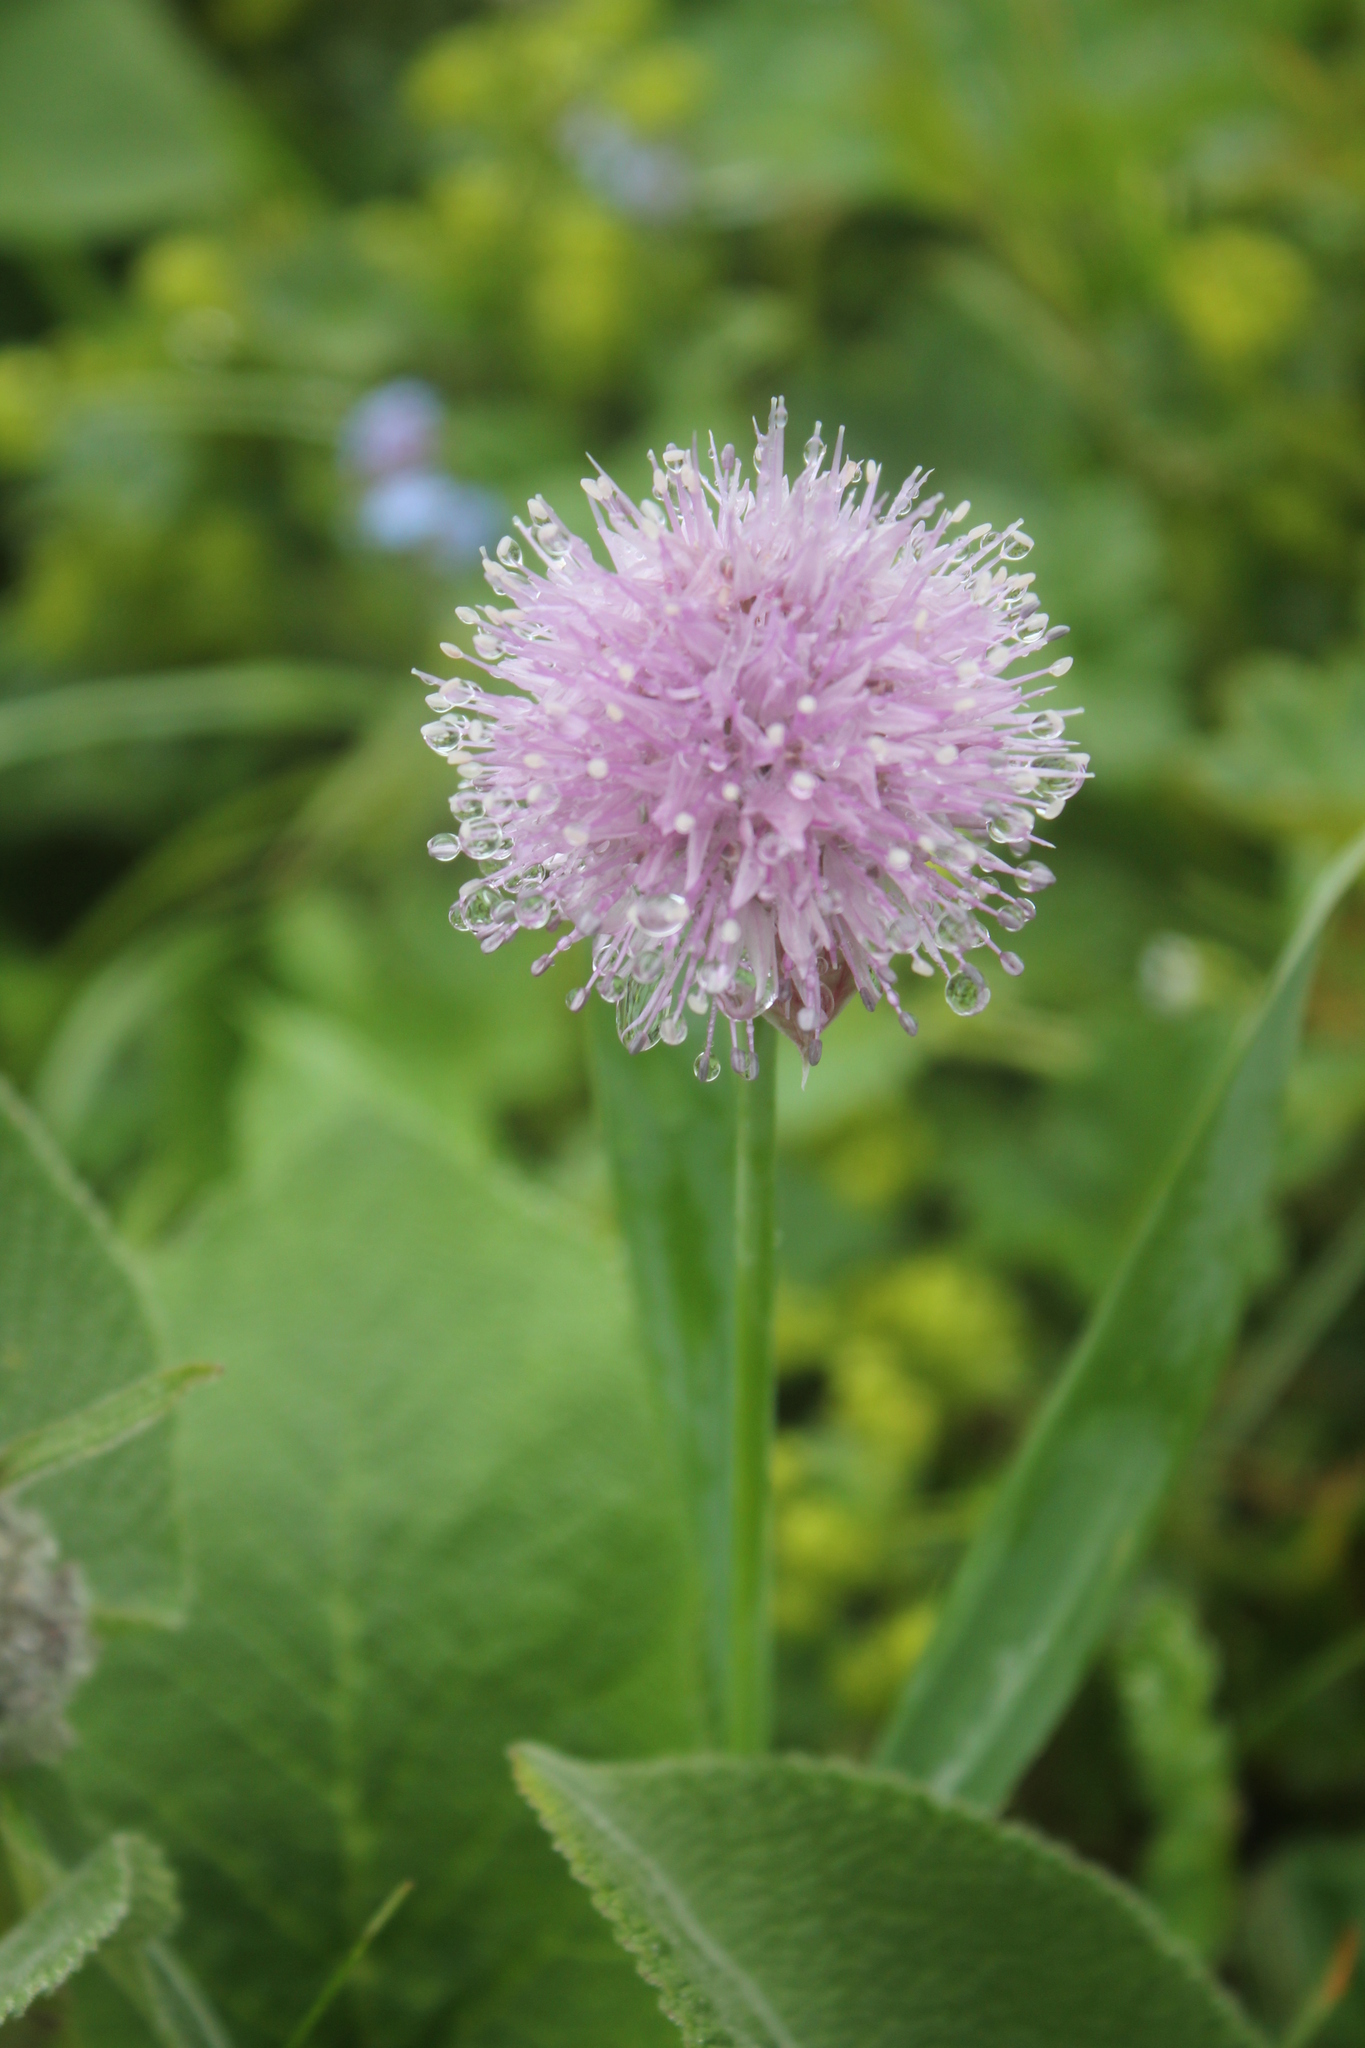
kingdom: Plantae
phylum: Tracheophyta
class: Liliopsida
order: Asparagales
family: Amaryllidaceae
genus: Allium
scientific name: Allium platyspathum
